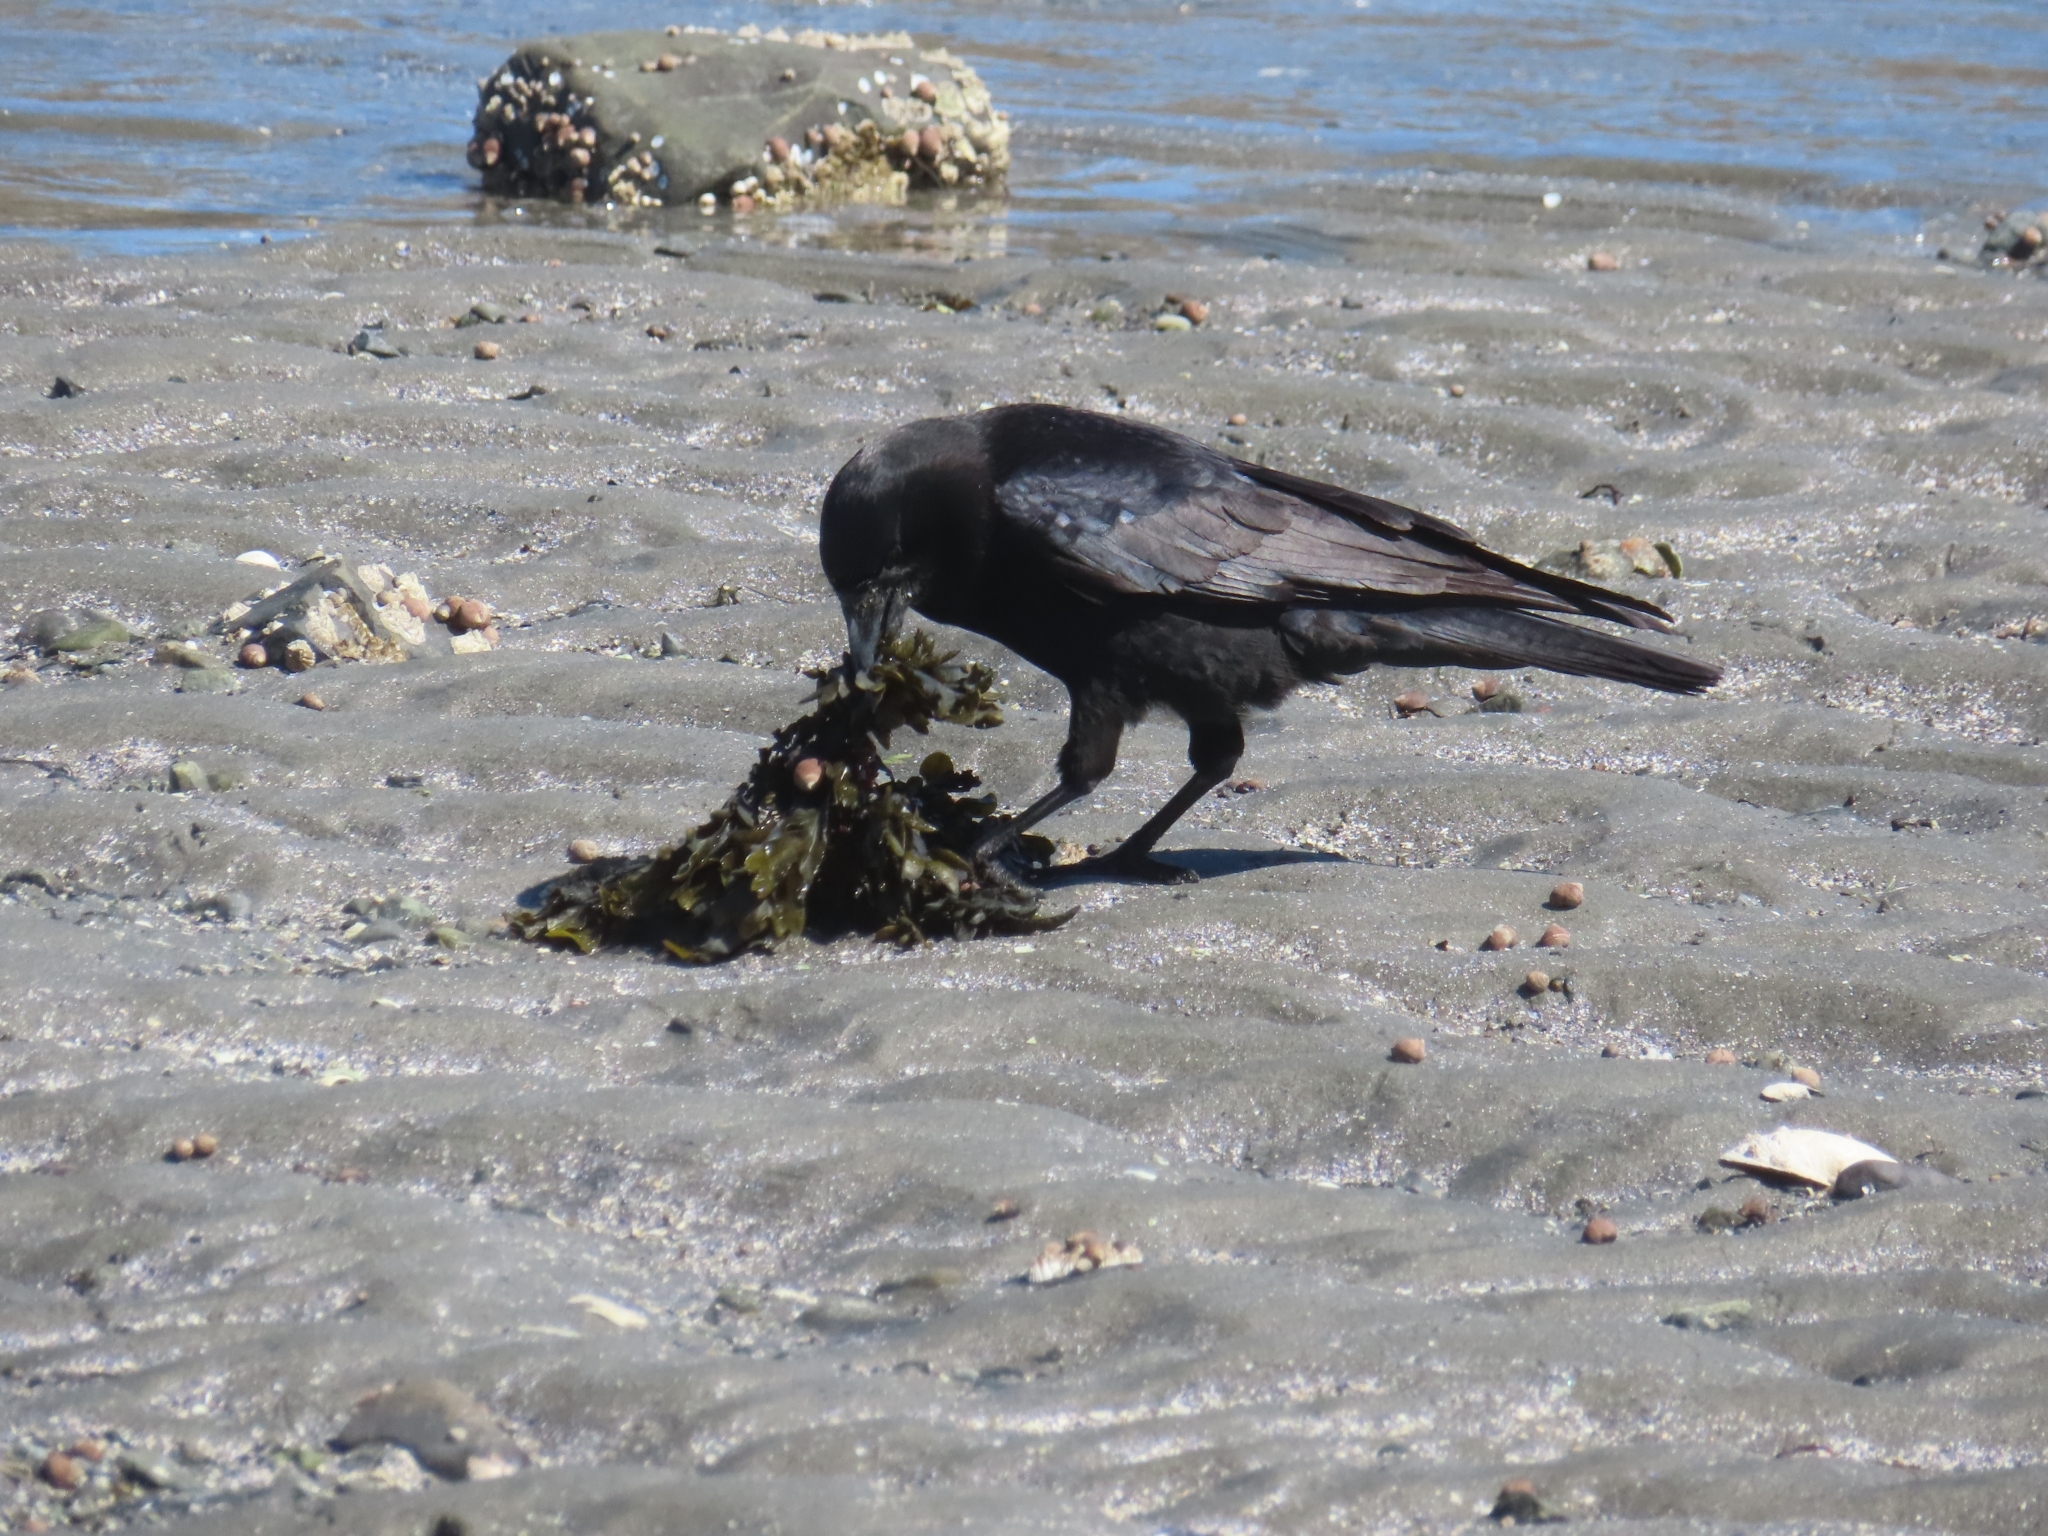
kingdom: Animalia
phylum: Chordata
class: Aves
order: Passeriformes
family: Corvidae
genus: Corvus
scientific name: Corvus brachyrhynchos
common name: American crow
